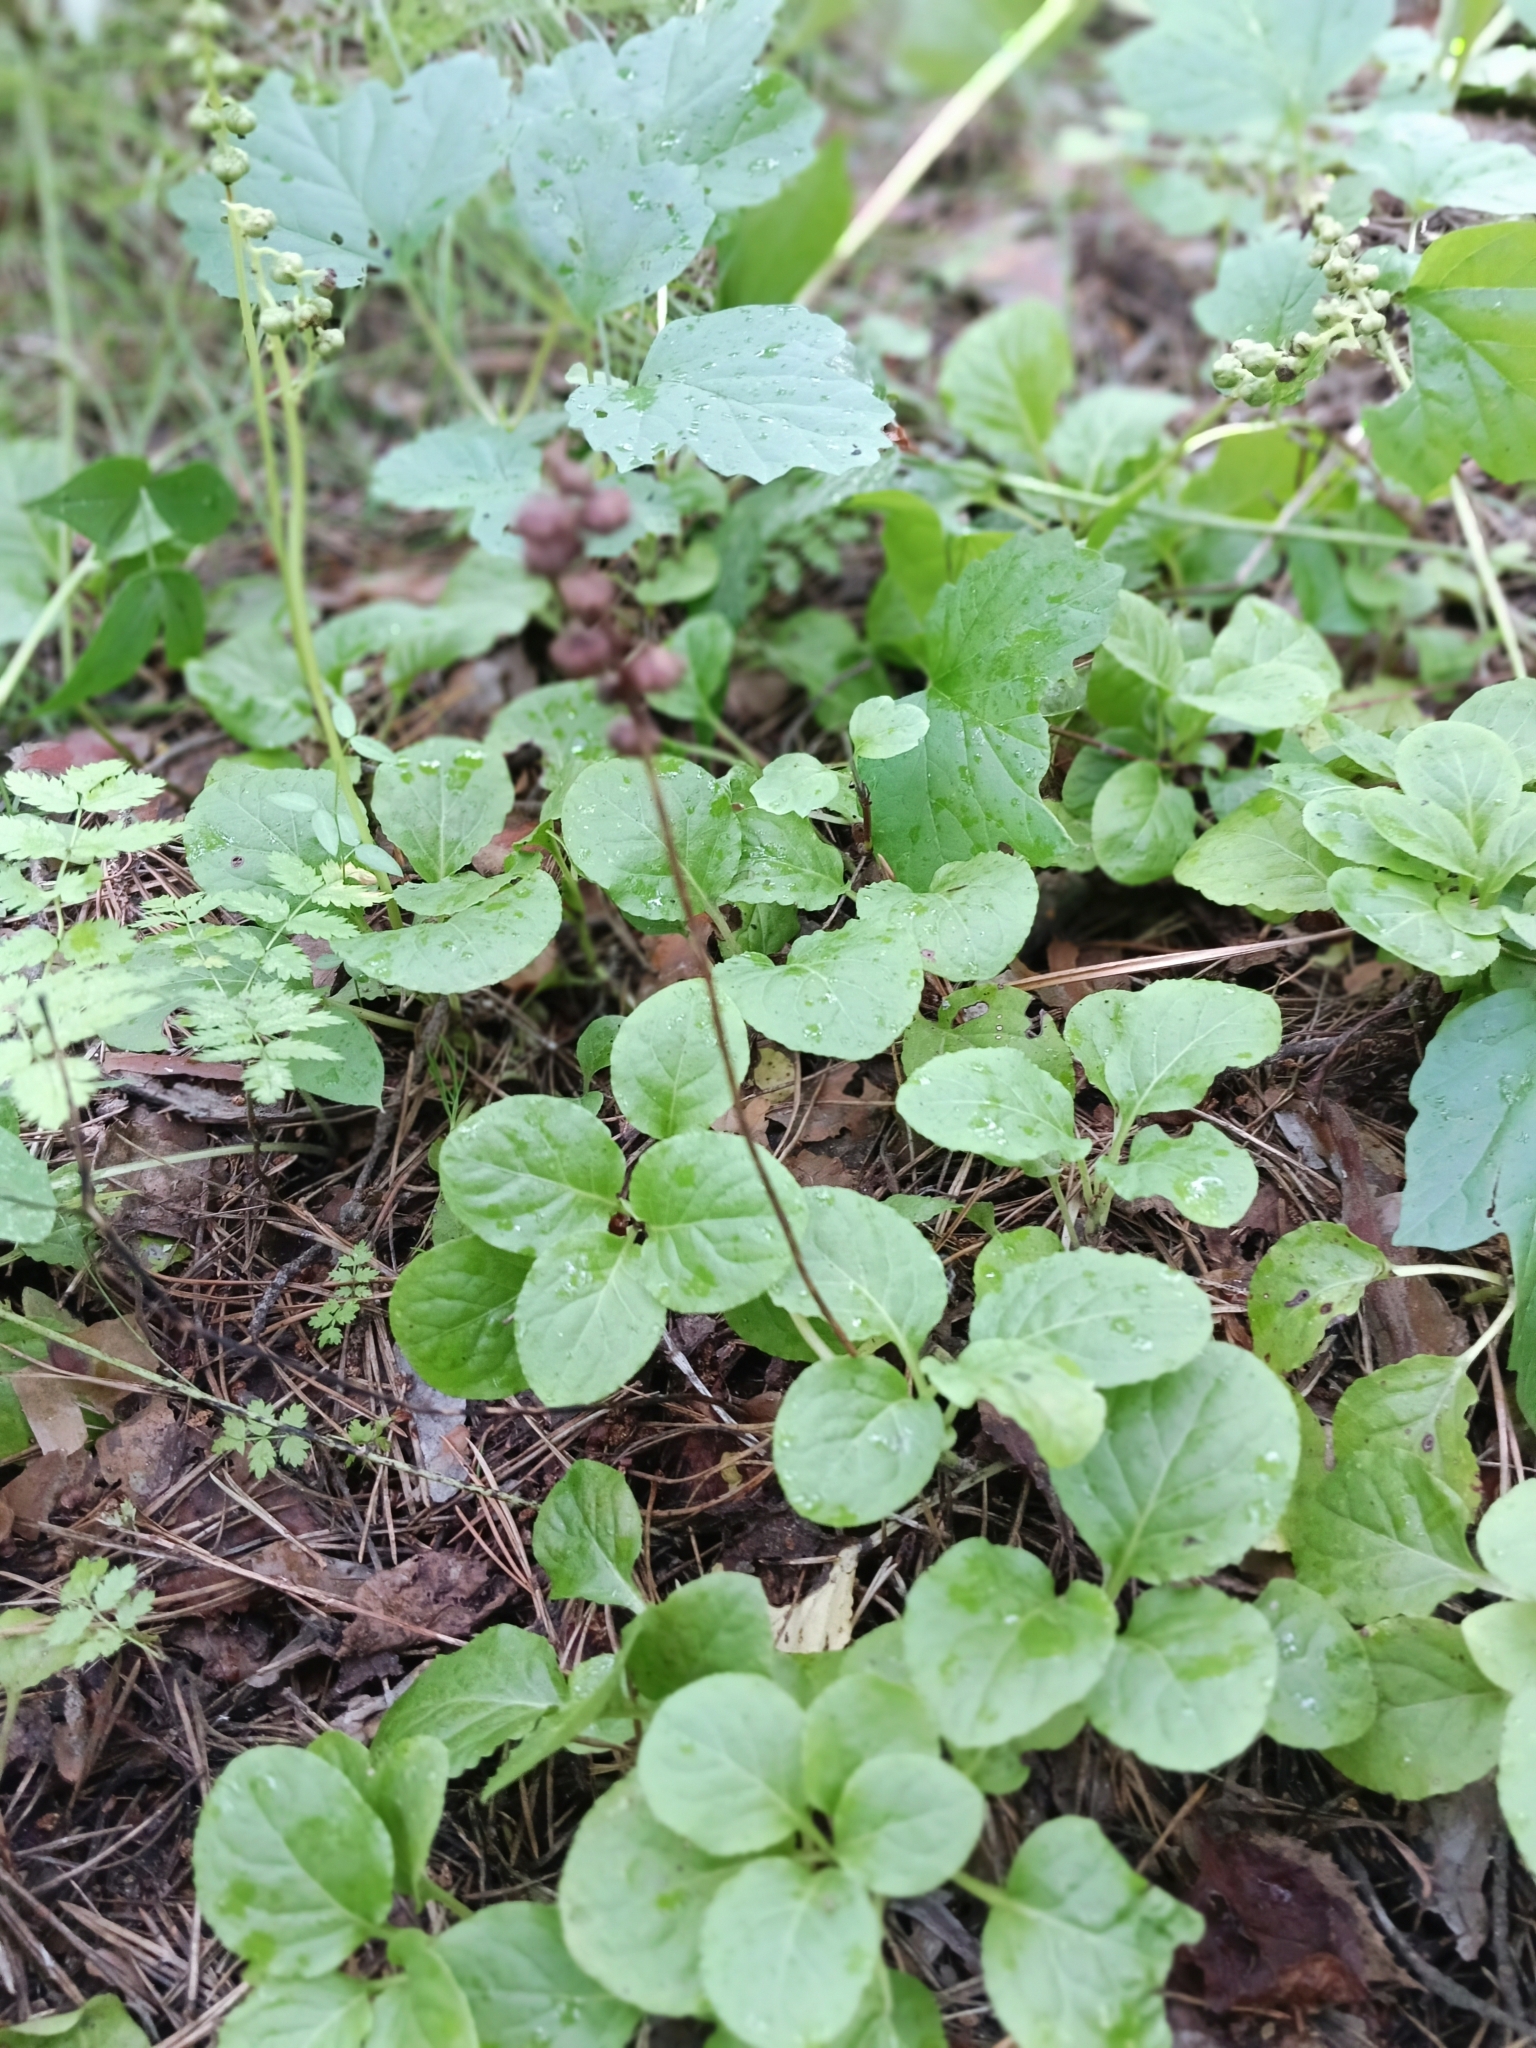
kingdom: Plantae
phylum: Tracheophyta
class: Magnoliopsida
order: Ericales
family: Ericaceae
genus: Pyrola
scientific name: Pyrola minor
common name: Common wintergreen
